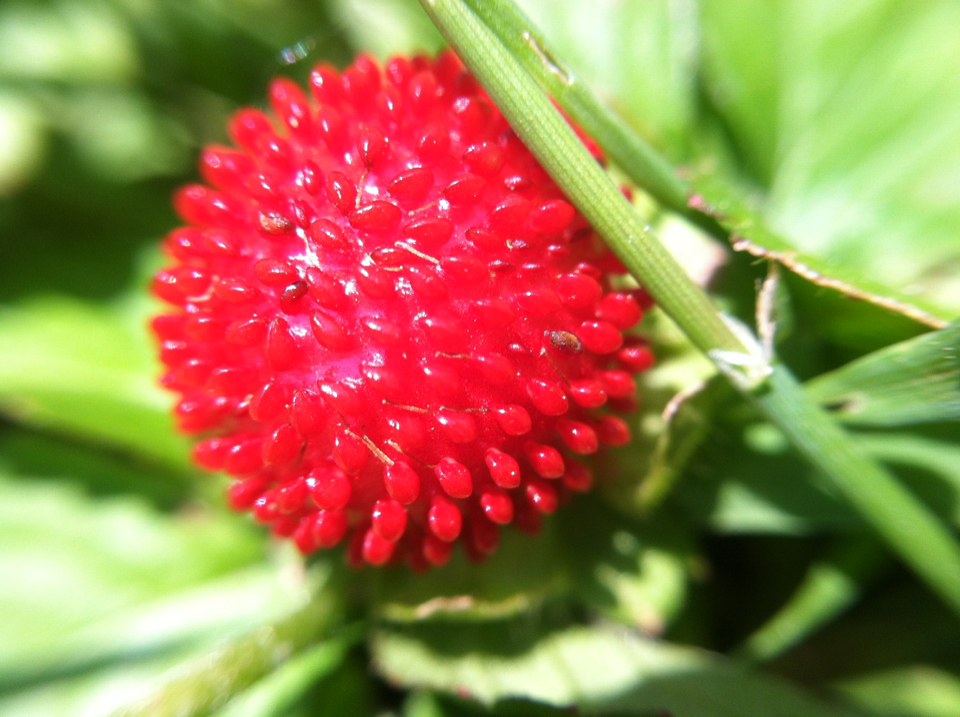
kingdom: Plantae
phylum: Tracheophyta
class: Magnoliopsida
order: Rosales
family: Rosaceae
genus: Potentilla
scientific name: Potentilla indica
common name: Yellow-flowered strawberry
